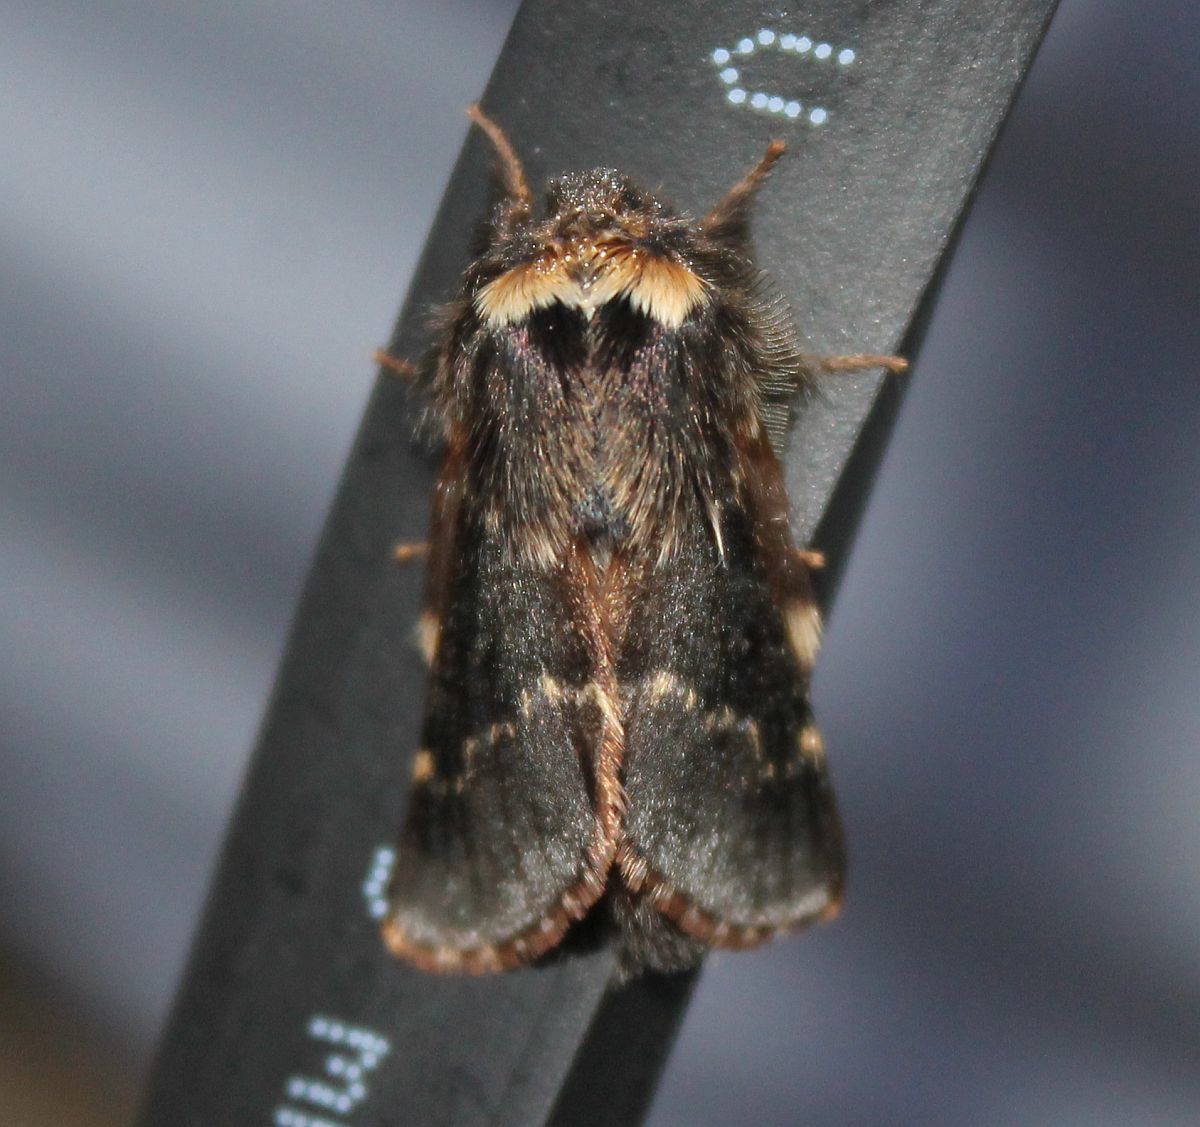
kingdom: Animalia
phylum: Arthropoda
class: Insecta
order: Lepidoptera
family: Lasiocampidae
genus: Poecilocampa
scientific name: Poecilocampa populi
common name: December moth
